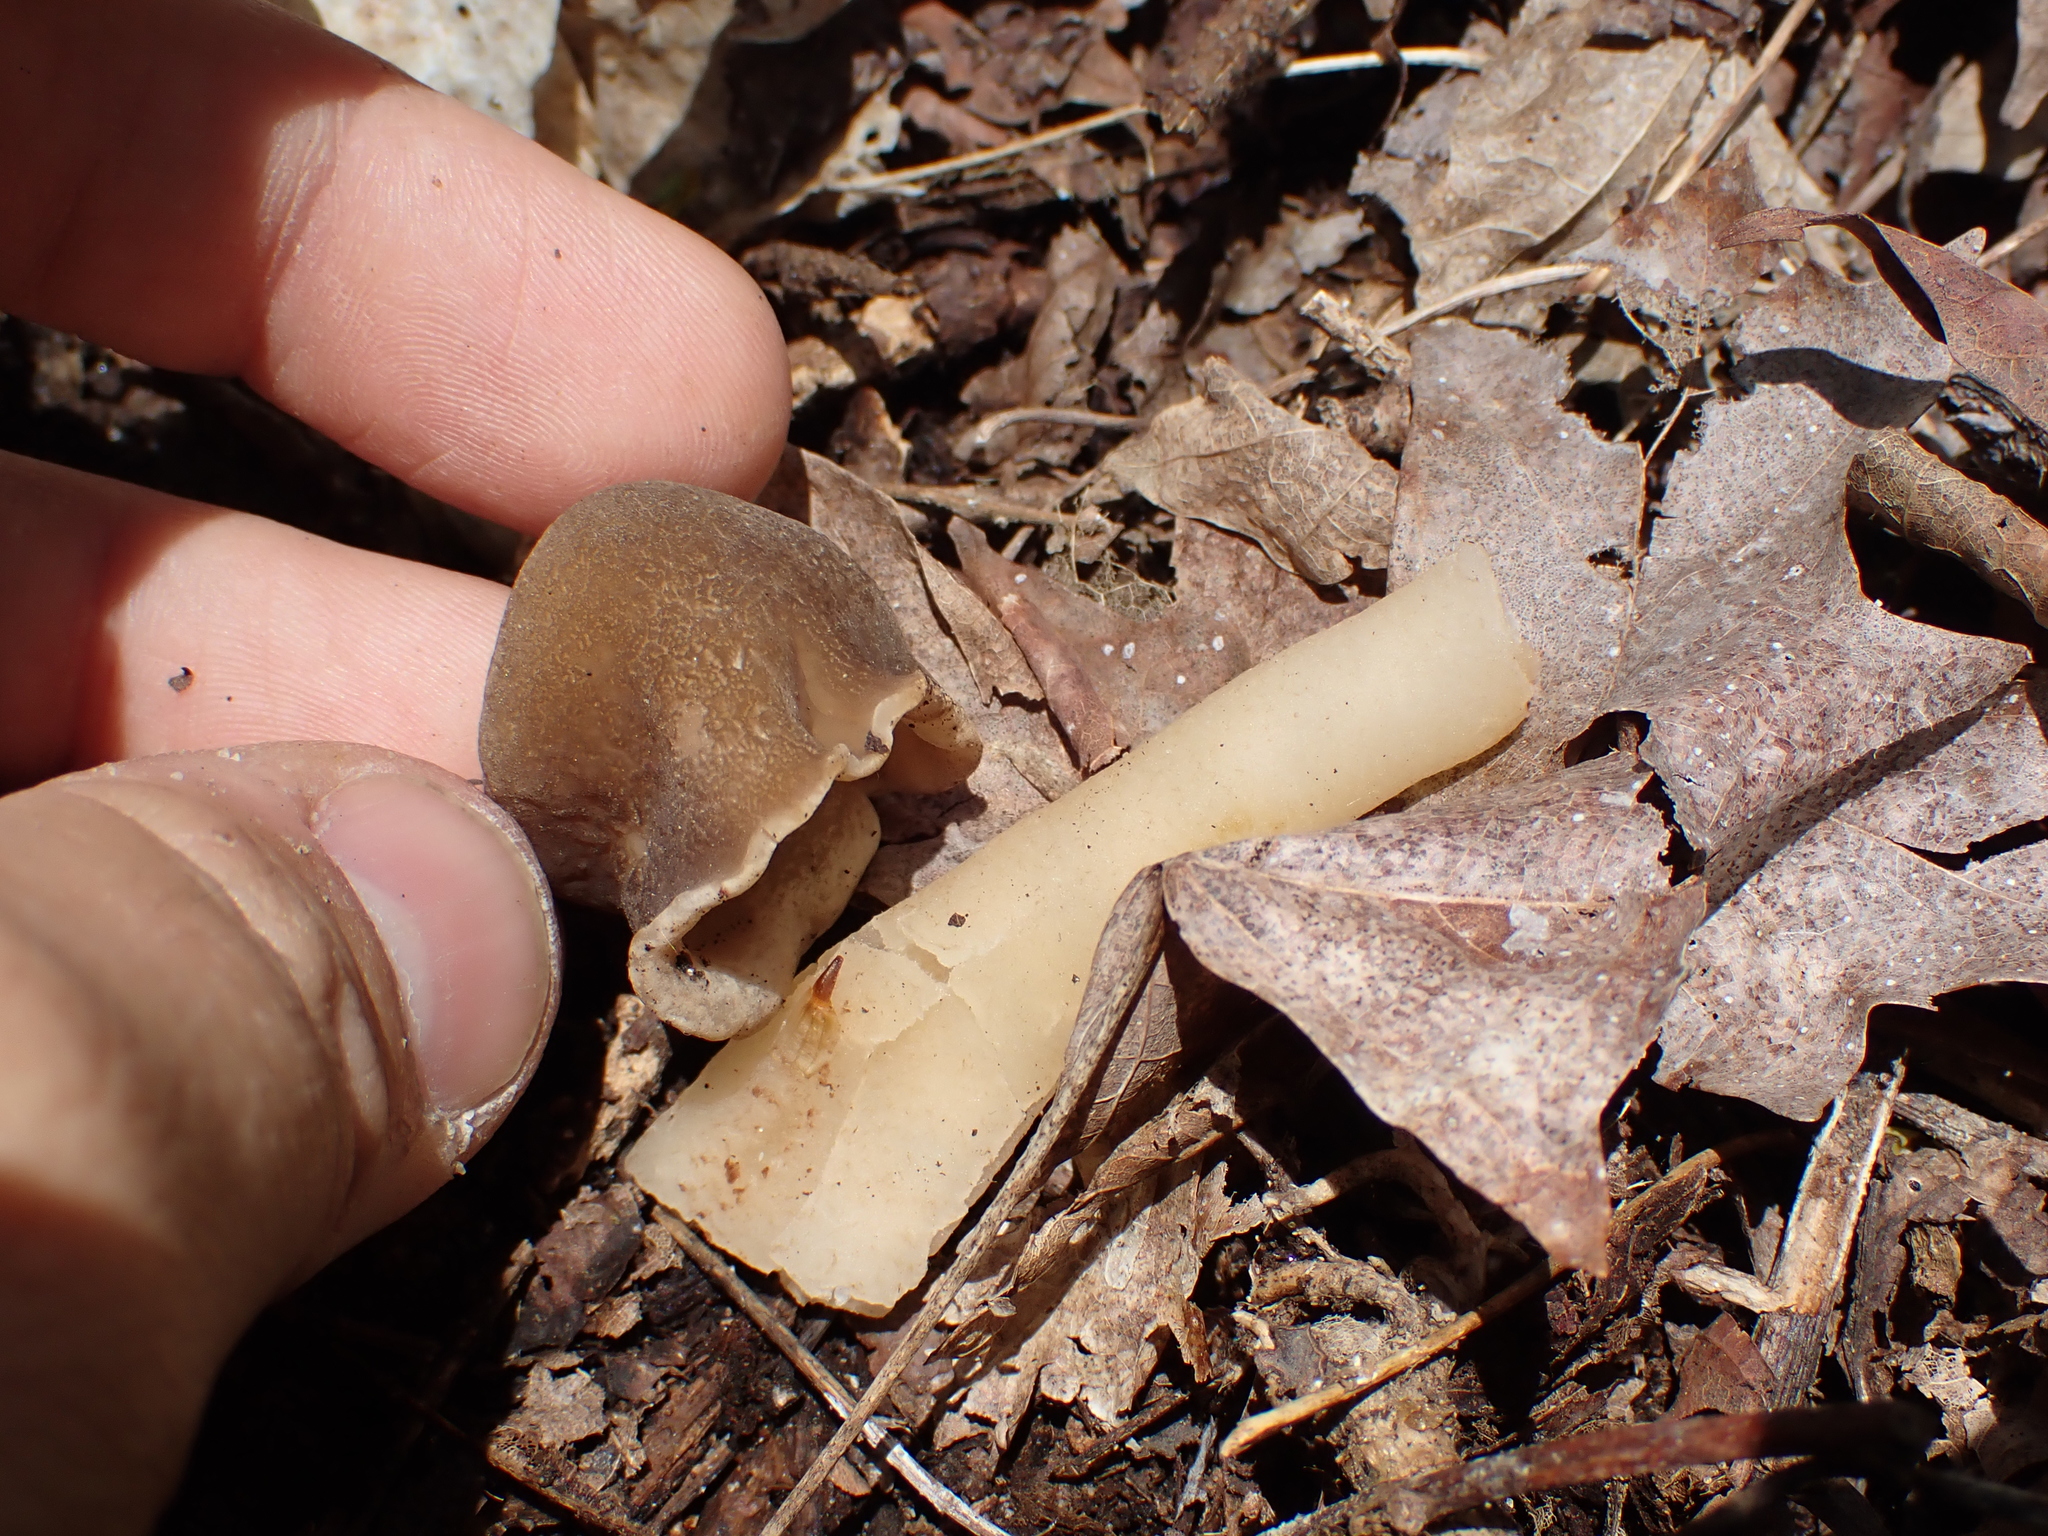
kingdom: Fungi
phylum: Ascomycota
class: Pezizomycetes
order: Pezizales
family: Morchellaceae
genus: Verpa
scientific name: Verpa conica
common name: Thimble morel
